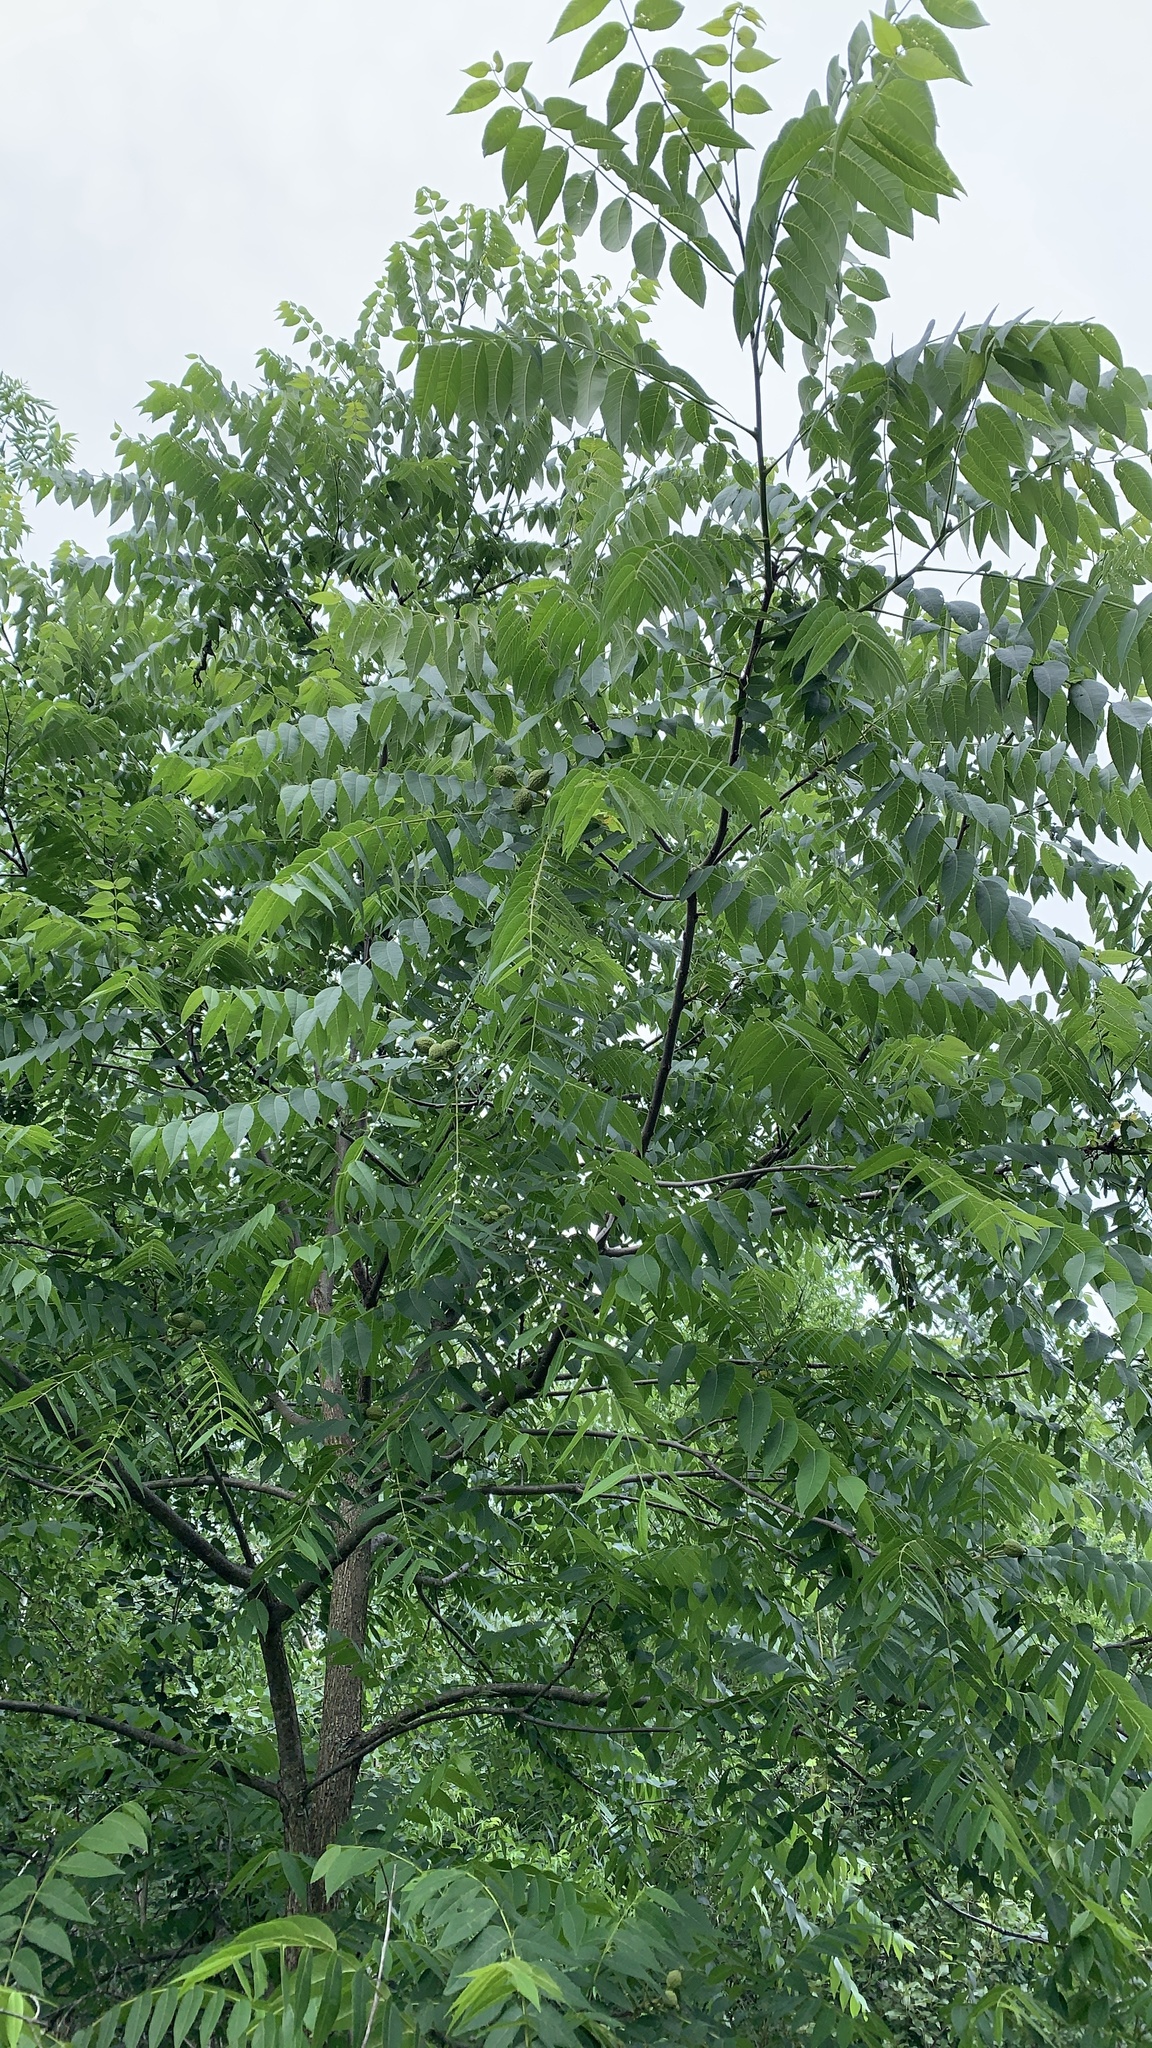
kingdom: Plantae
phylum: Tracheophyta
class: Magnoliopsida
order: Fagales
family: Juglandaceae
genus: Juglans
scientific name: Juglans nigra
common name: Black walnut
